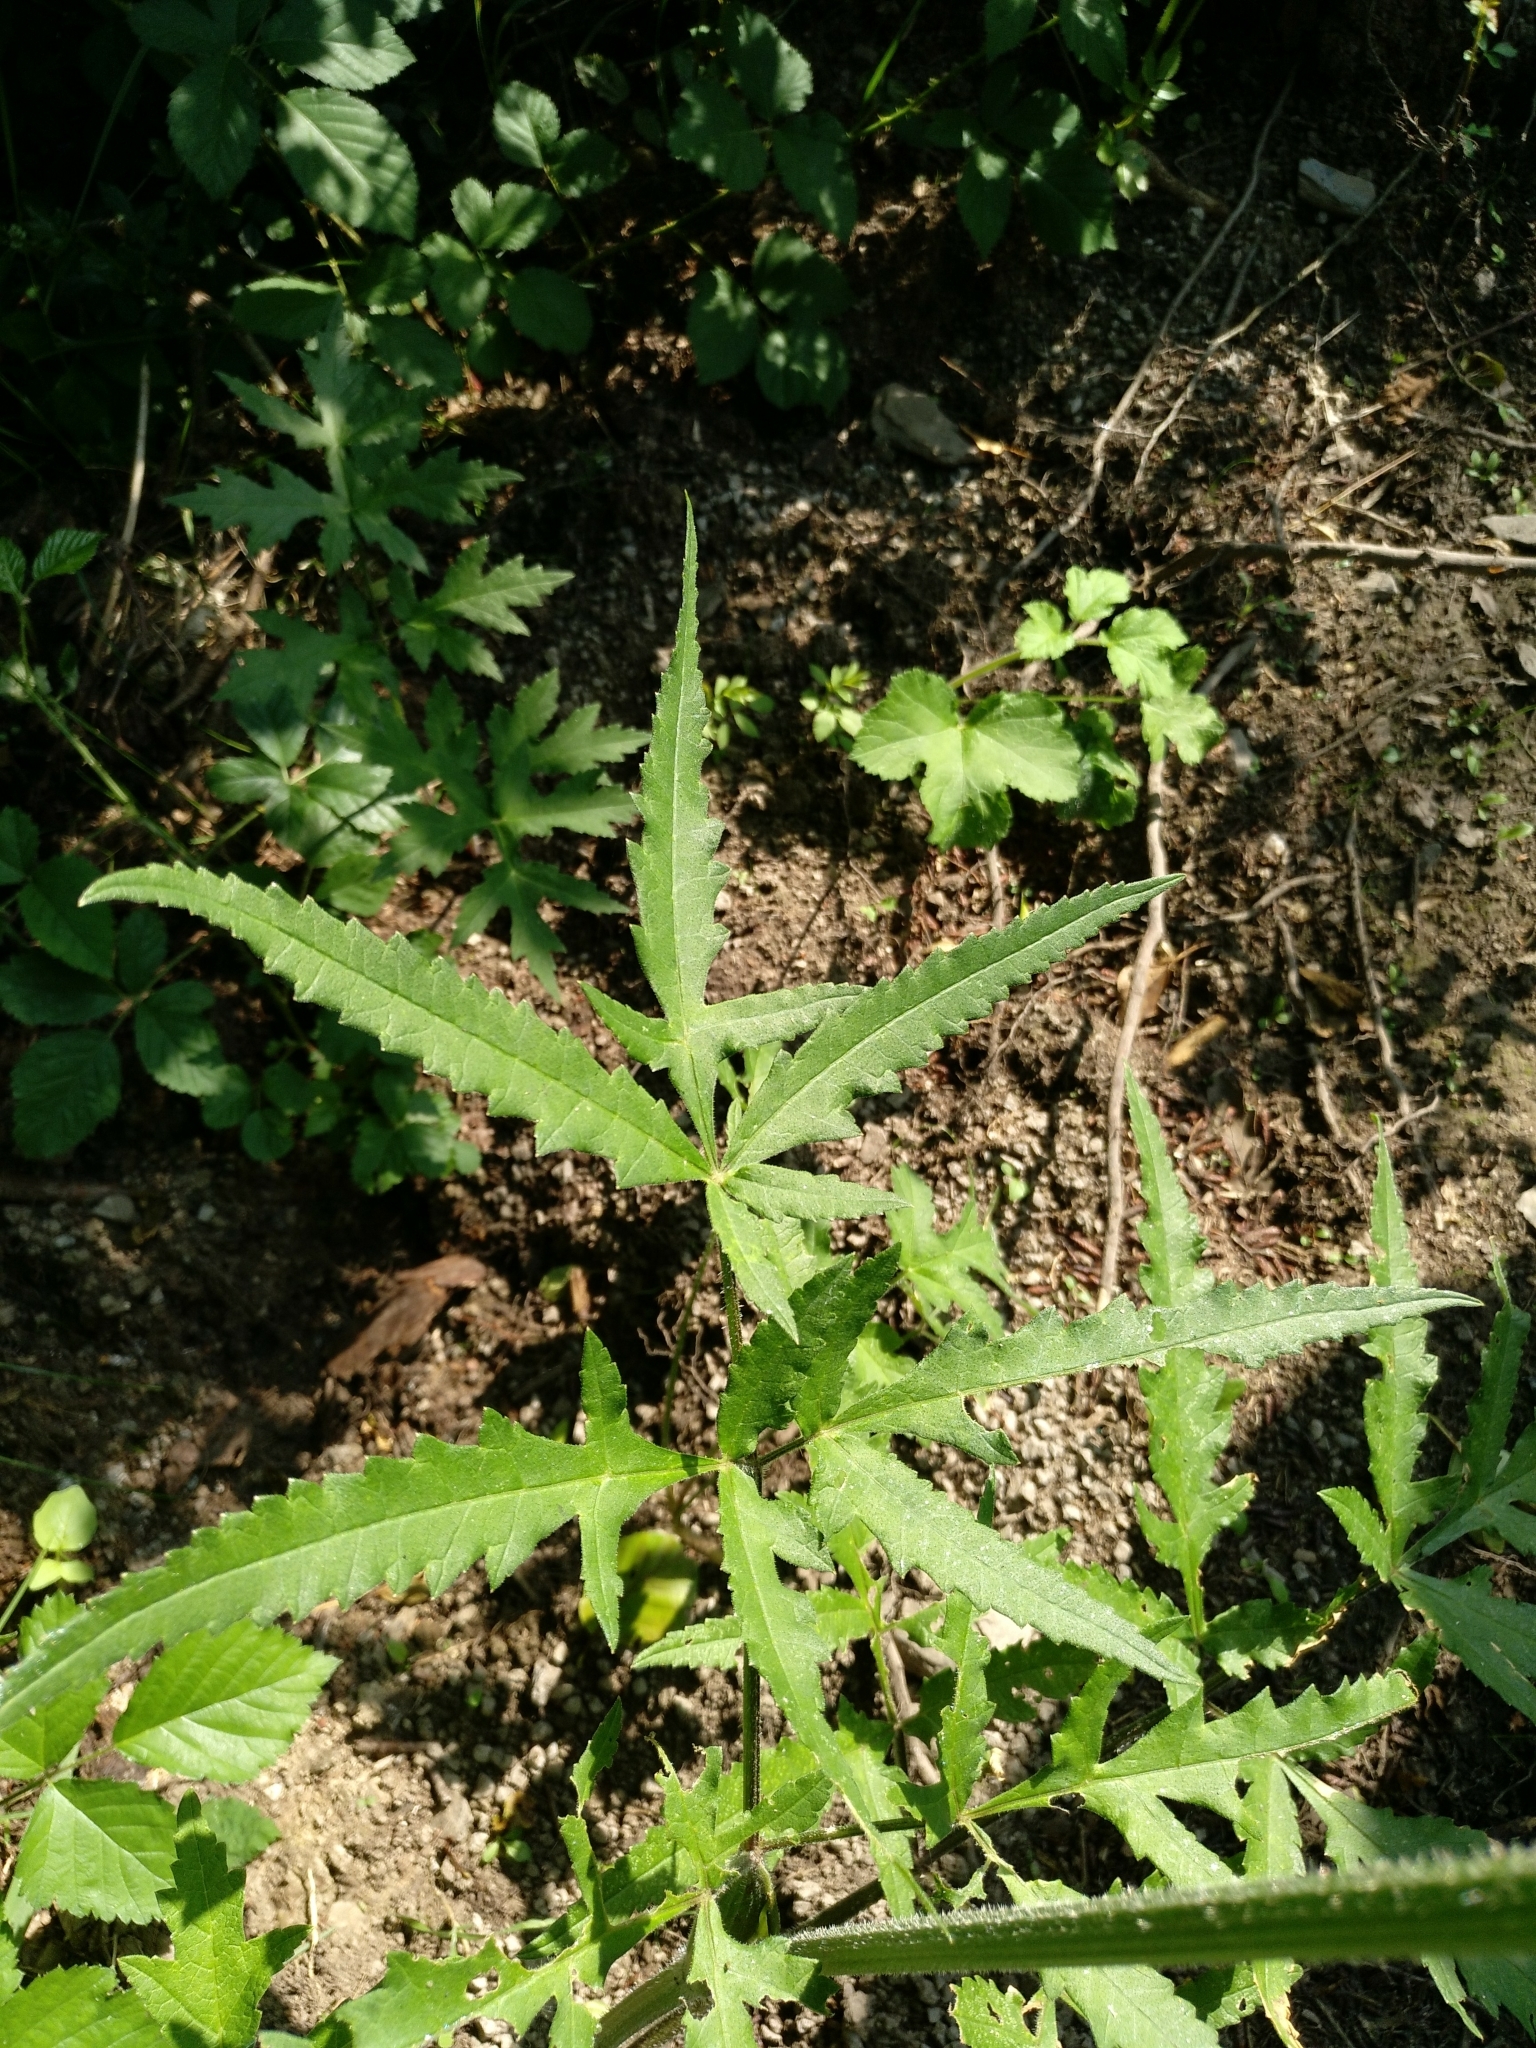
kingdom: Plantae
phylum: Tracheophyta
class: Magnoliopsida
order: Apiales
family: Apiaceae
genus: Heracleum
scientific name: Heracleum sphondylium
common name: Hogweed
